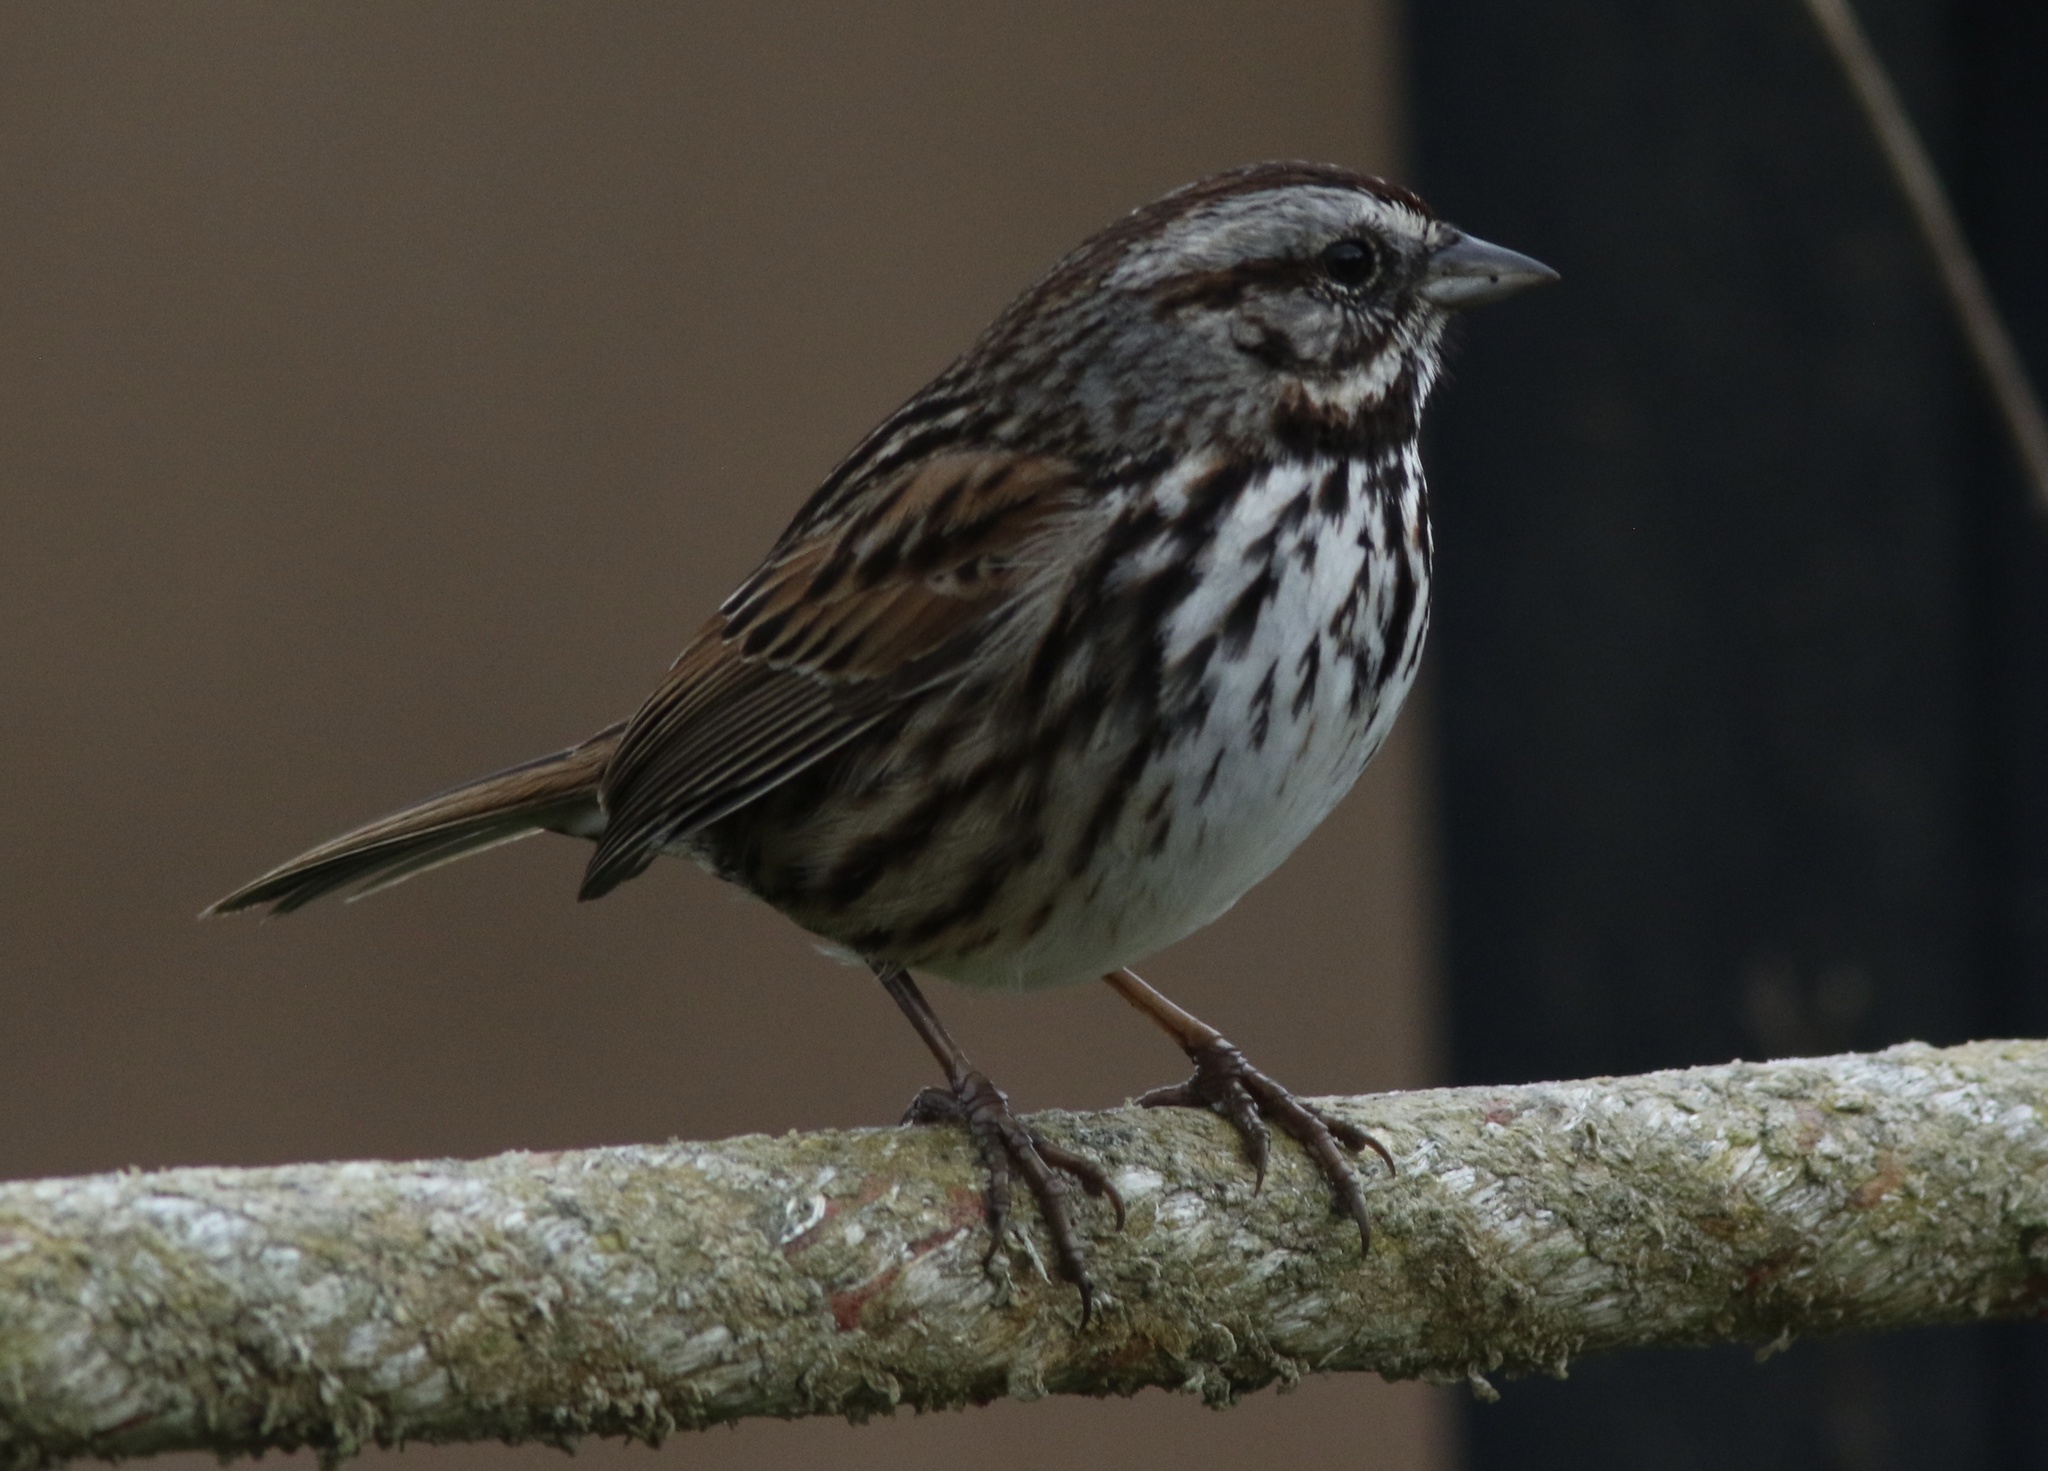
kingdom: Animalia
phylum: Chordata
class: Aves
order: Passeriformes
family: Passerellidae
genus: Melospiza
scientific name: Melospiza melodia
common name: Song sparrow
